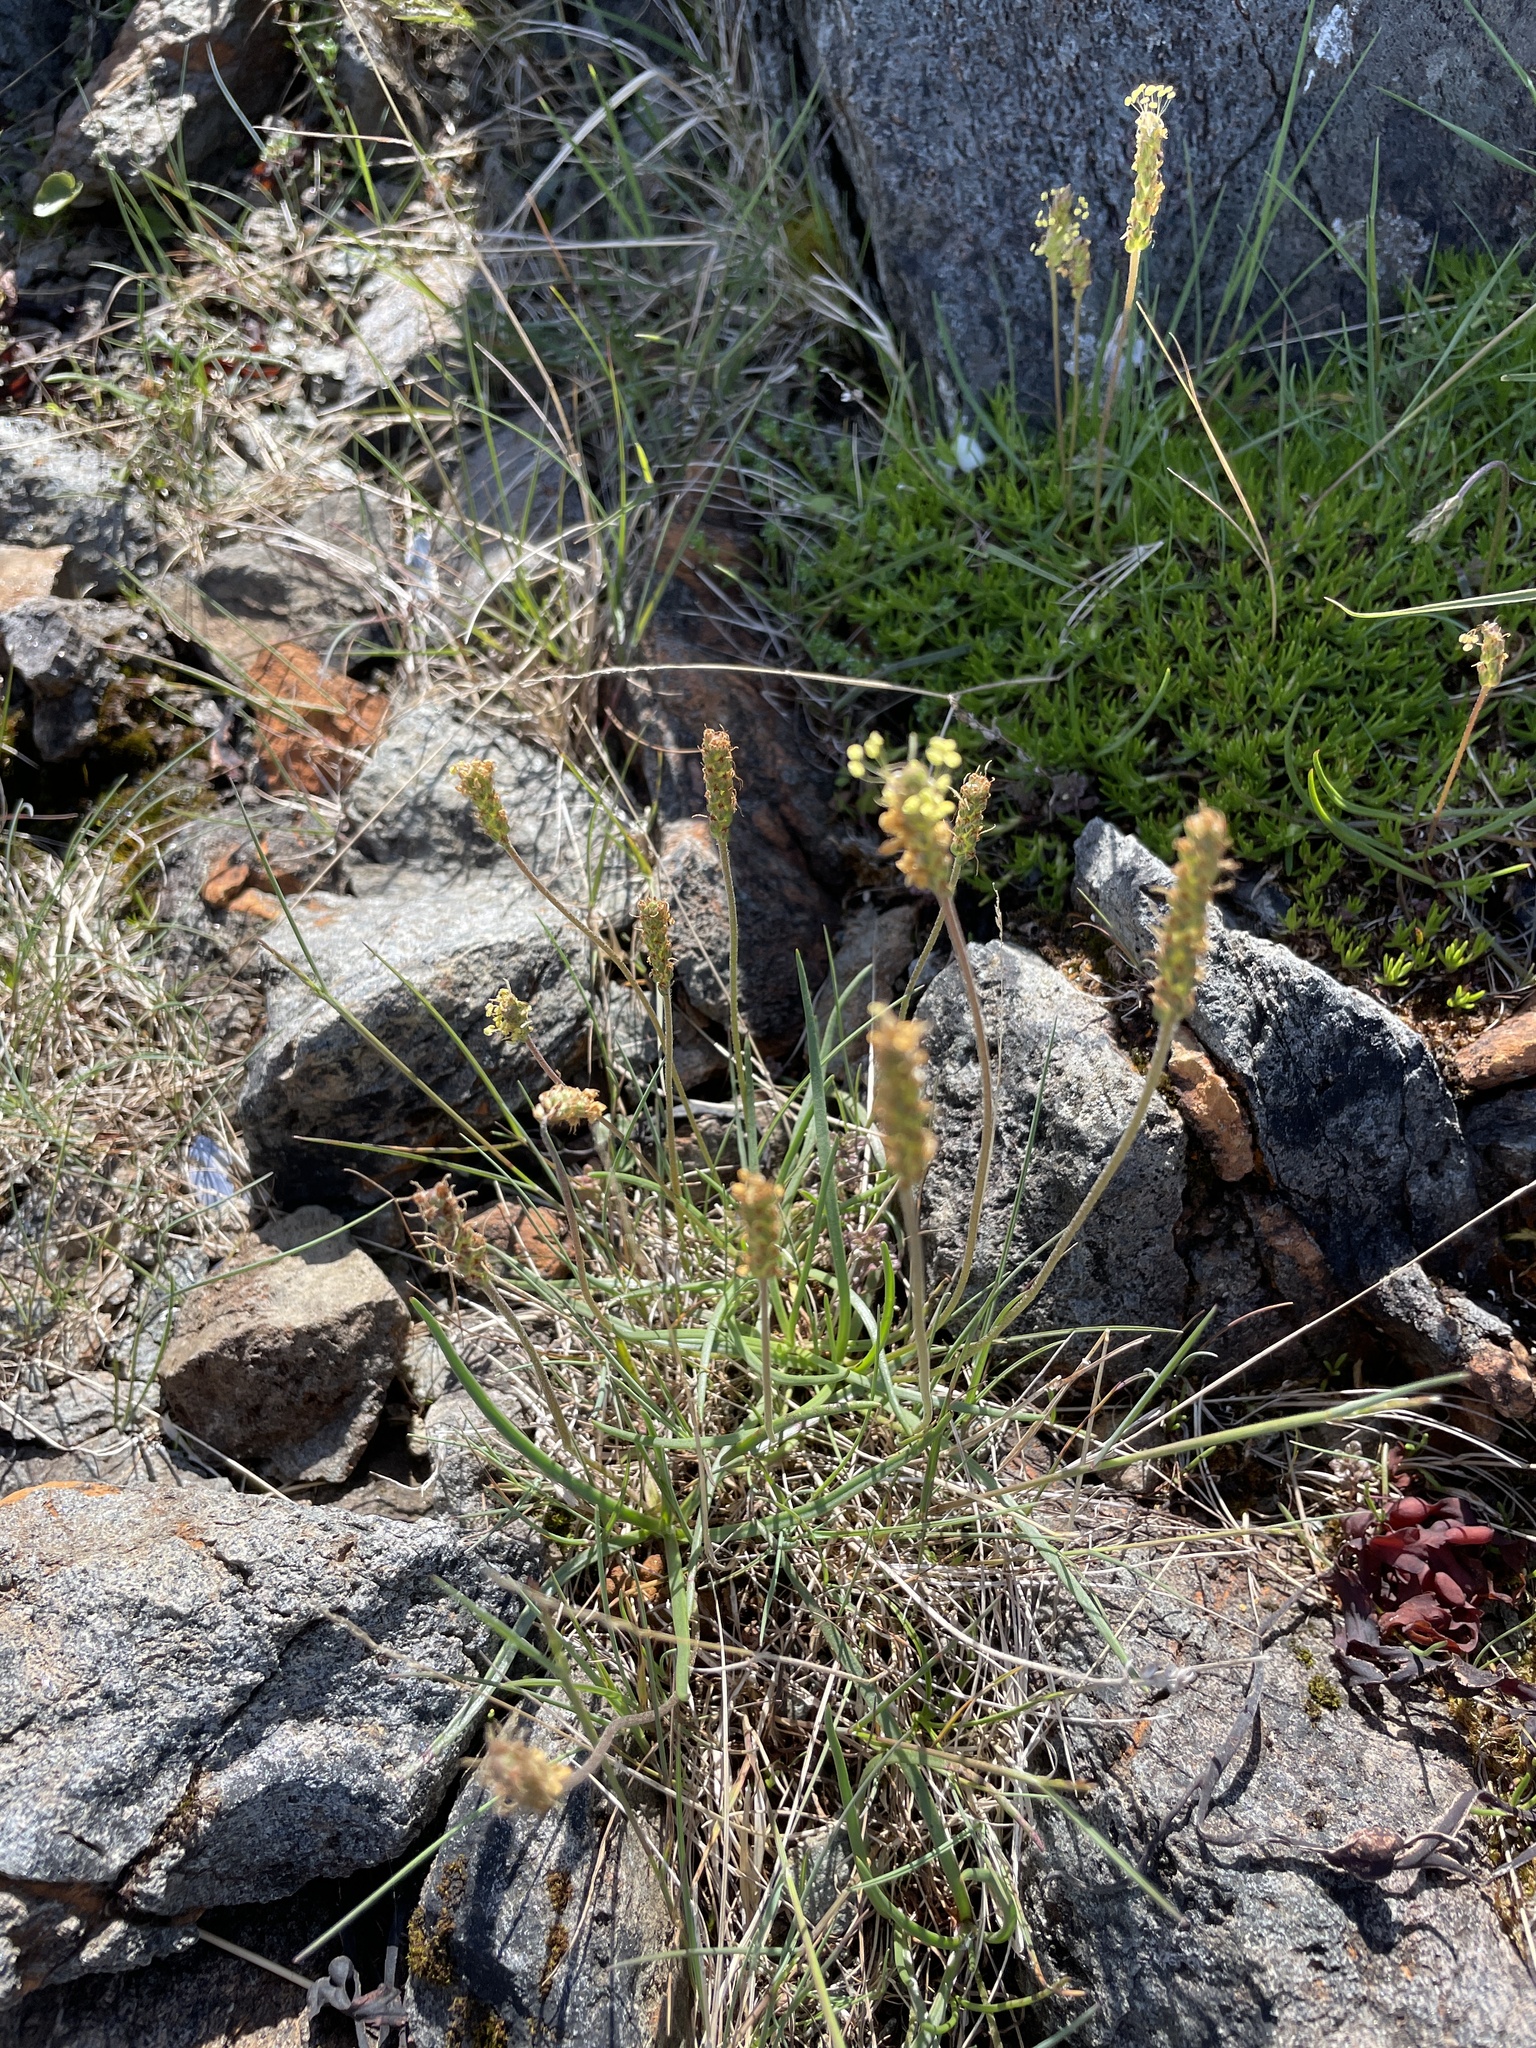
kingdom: Plantae
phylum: Tracheophyta
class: Magnoliopsida
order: Lamiales
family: Plantaginaceae
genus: Plantago
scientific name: Plantago maritima
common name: Sea plantain
